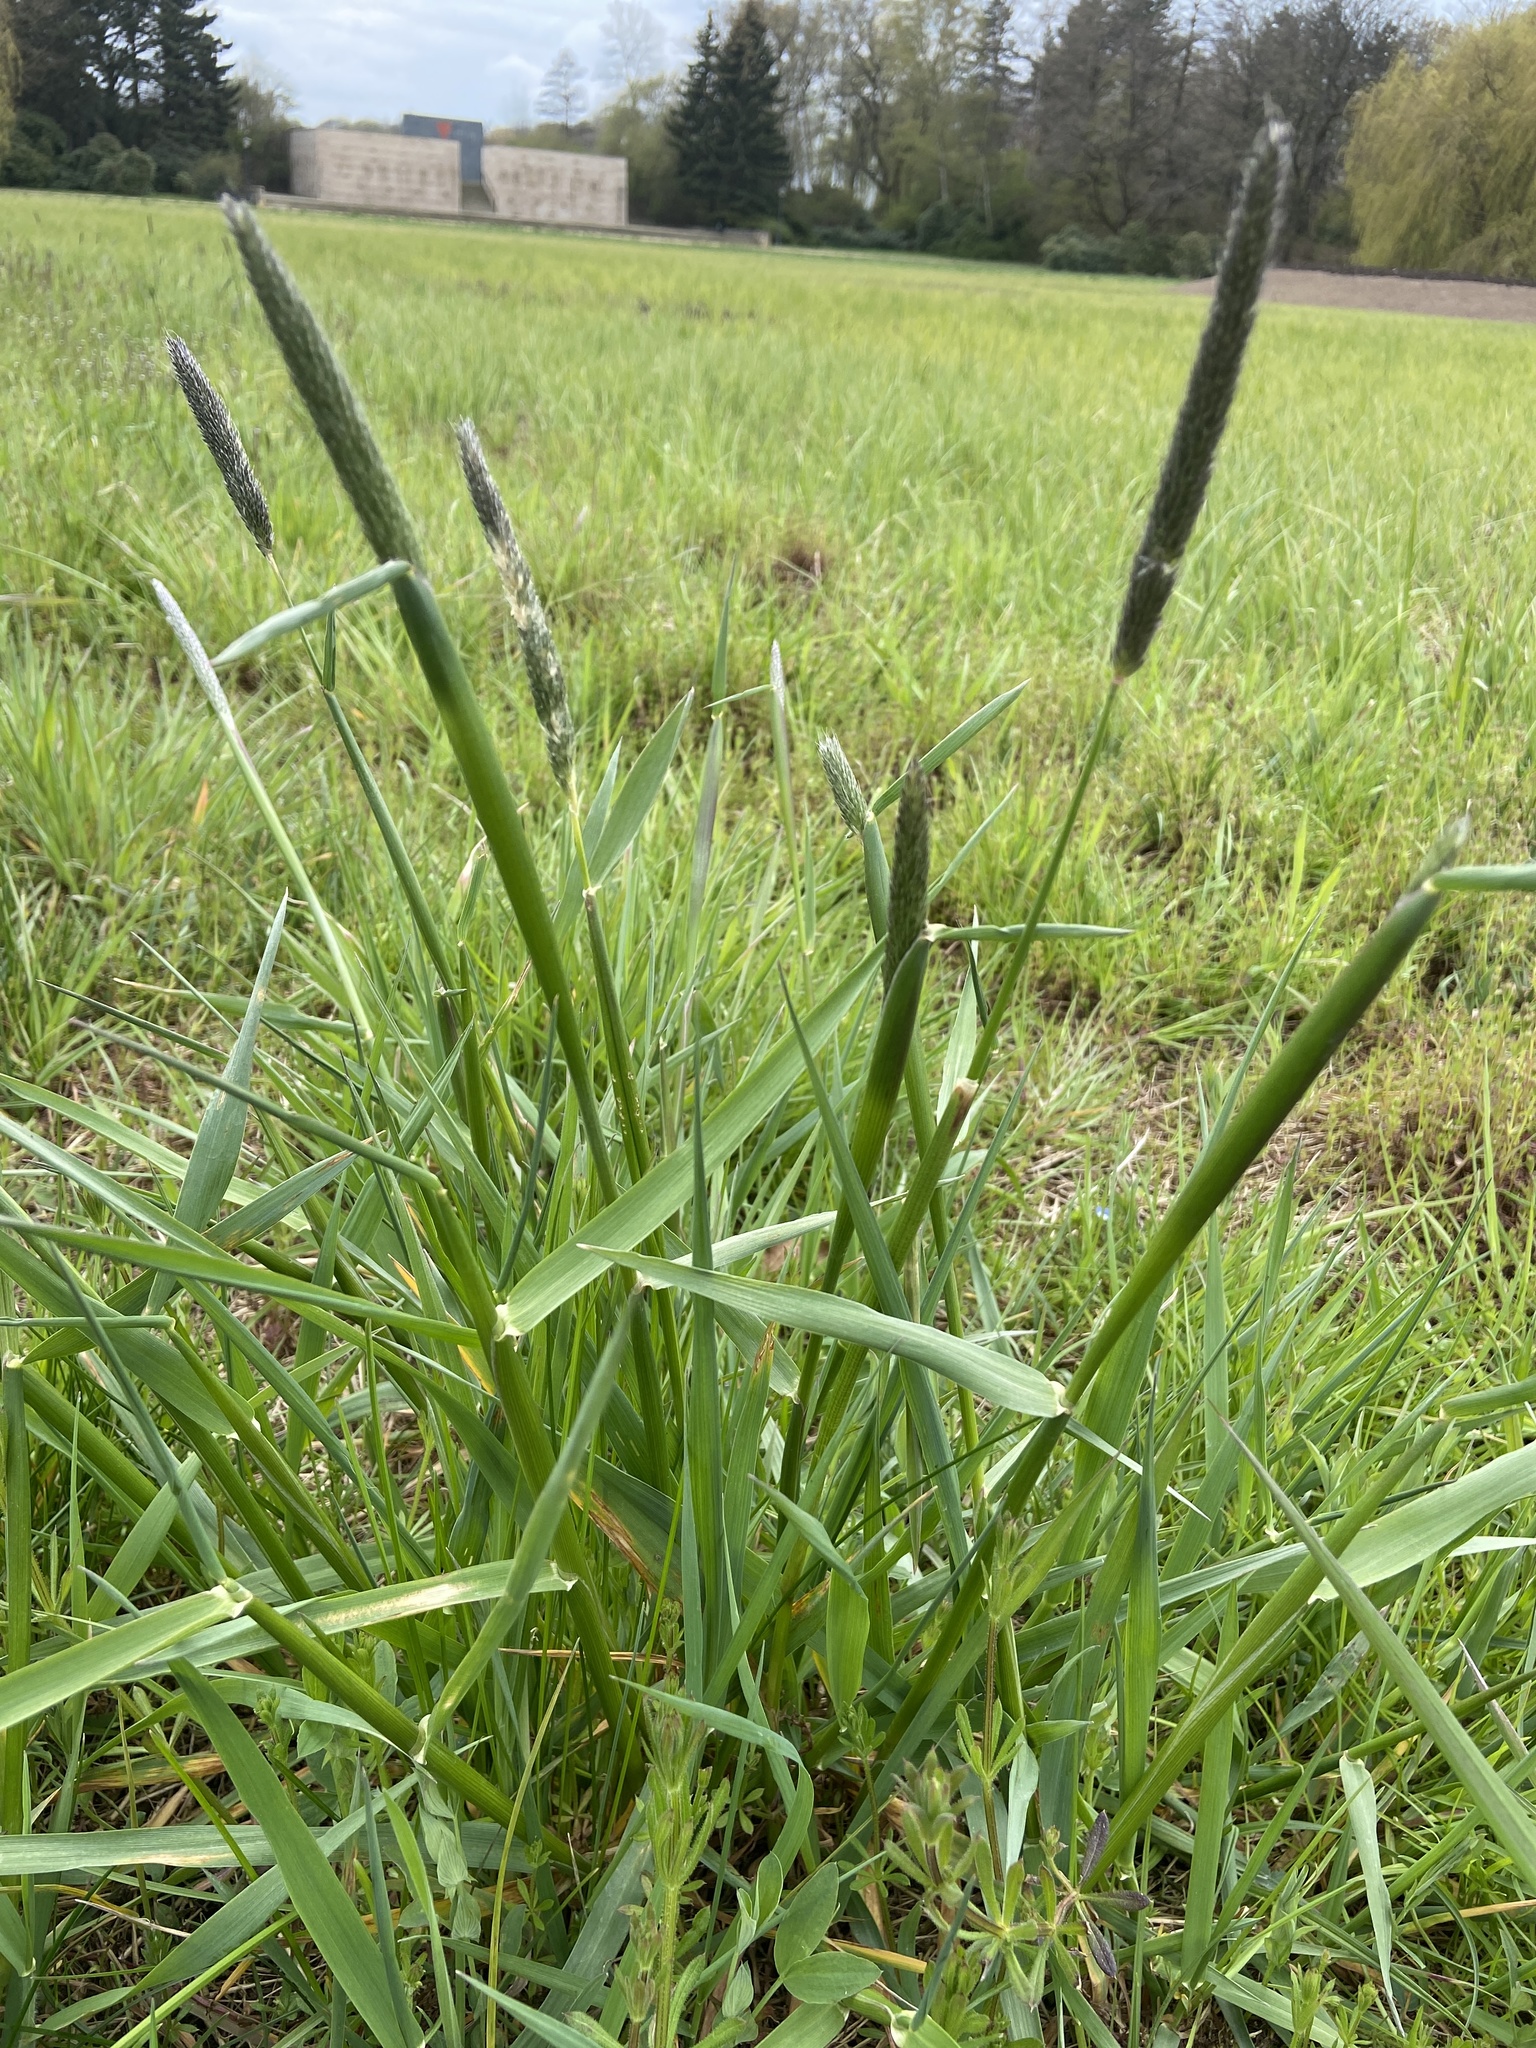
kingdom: Plantae
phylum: Tracheophyta
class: Liliopsida
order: Poales
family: Poaceae
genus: Alopecurus
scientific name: Alopecurus pratensis
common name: Meadow foxtail
